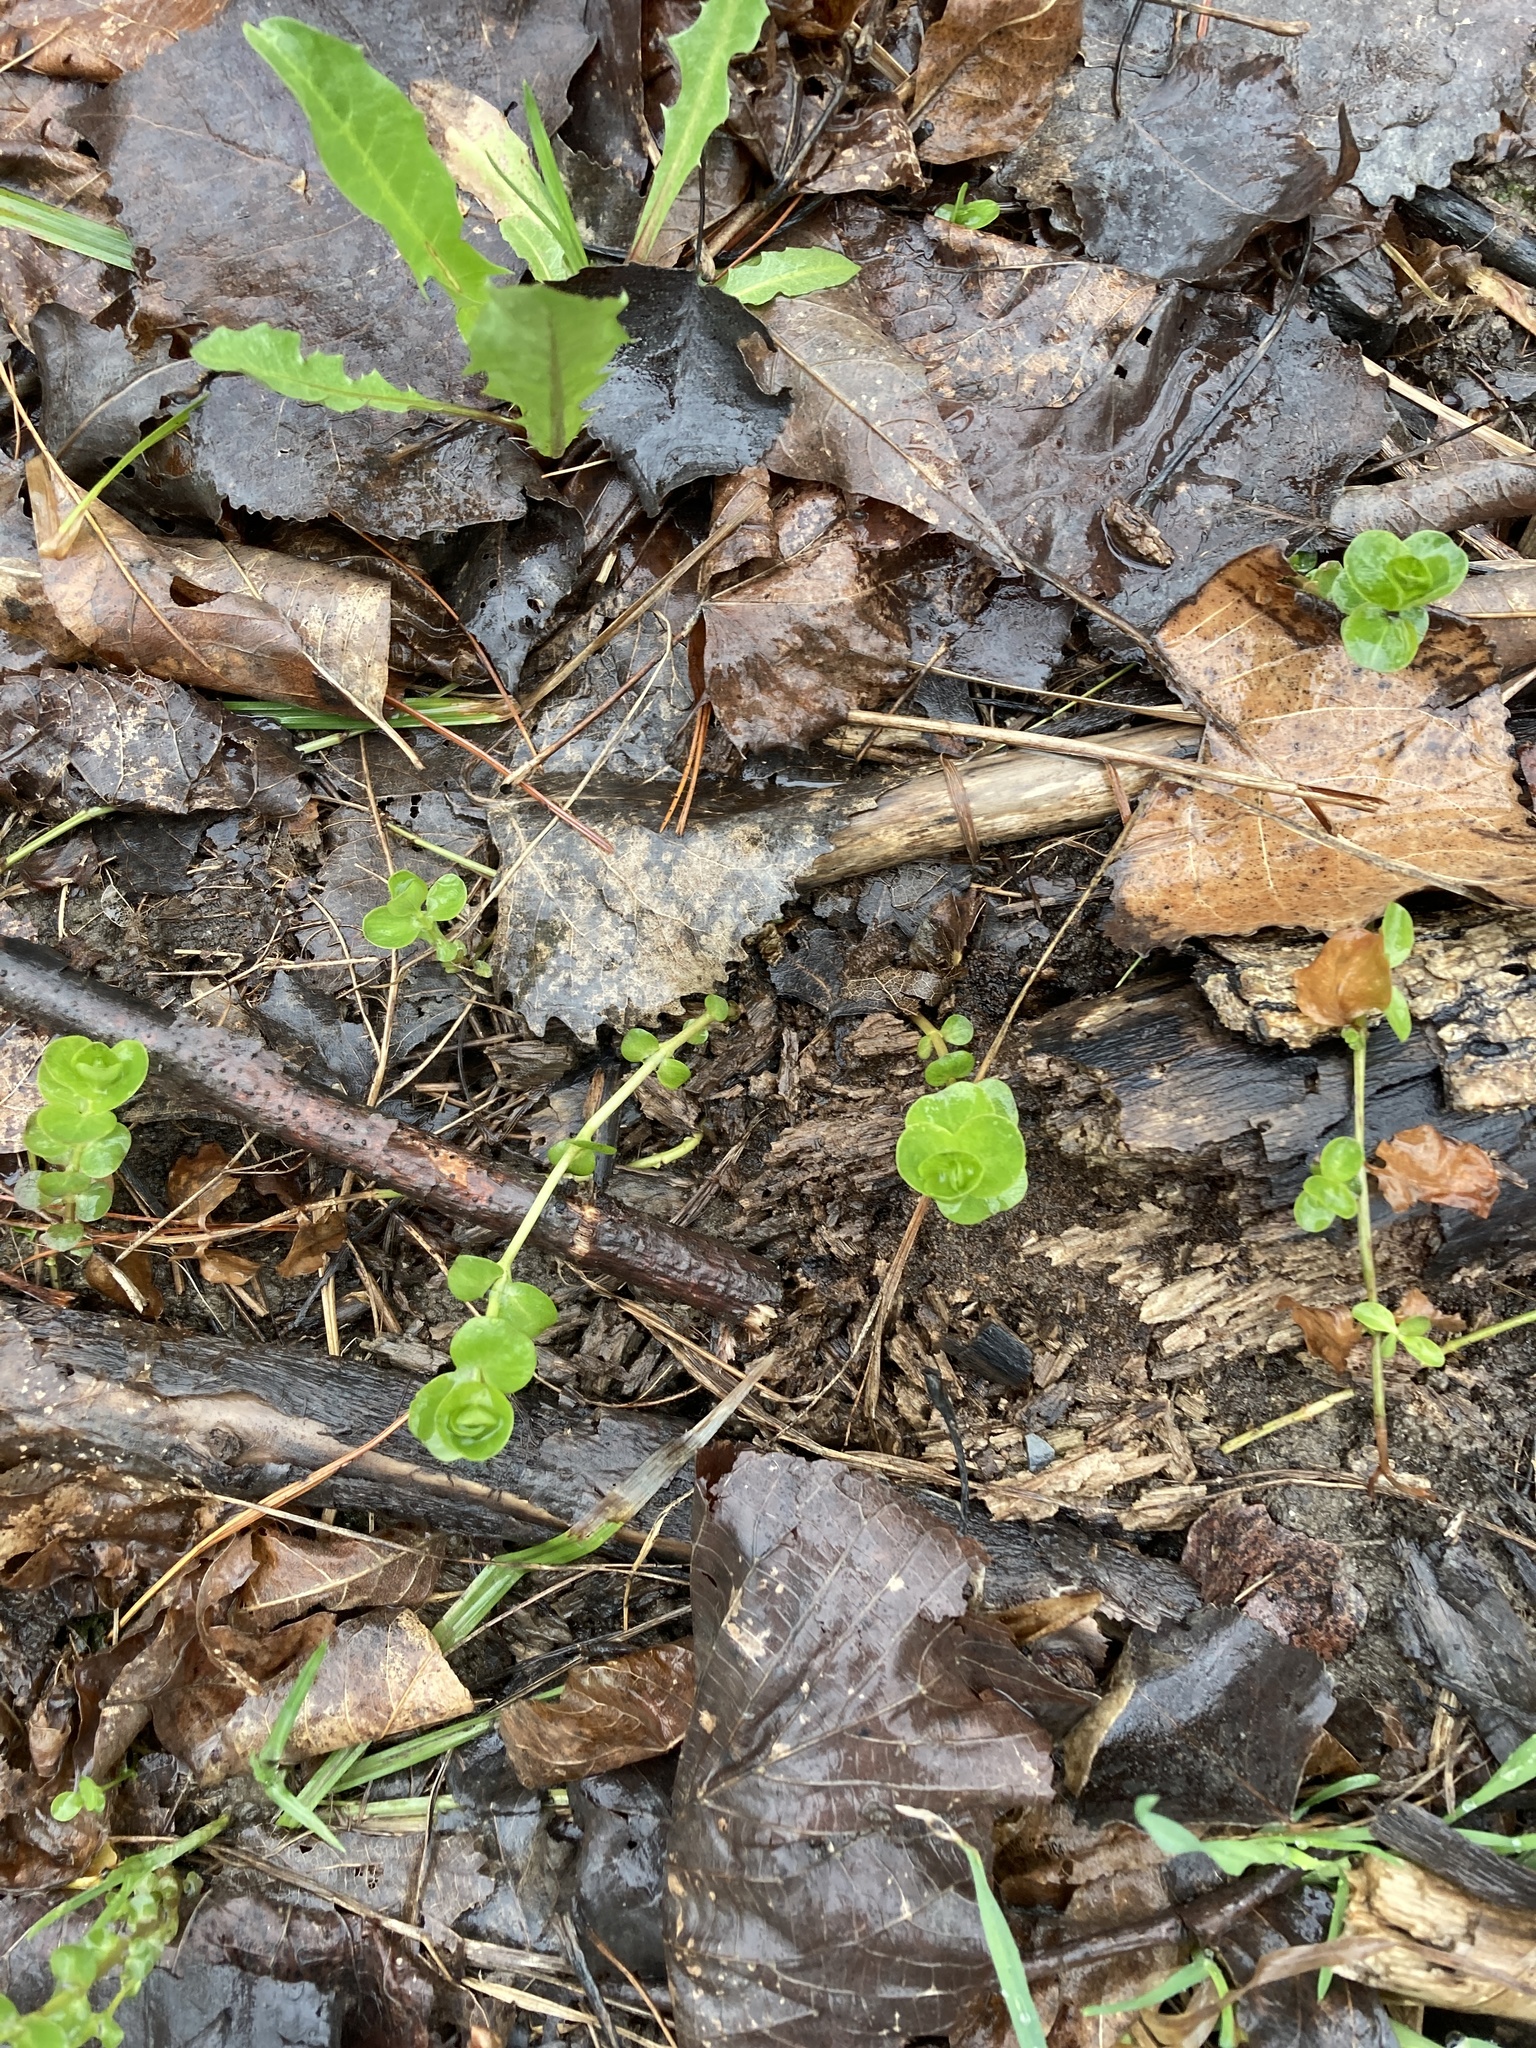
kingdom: Plantae
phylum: Tracheophyta
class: Magnoliopsida
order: Ericales
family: Primulaceae
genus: Lysimachia
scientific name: Lysimachia nummularia
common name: Moneywort
